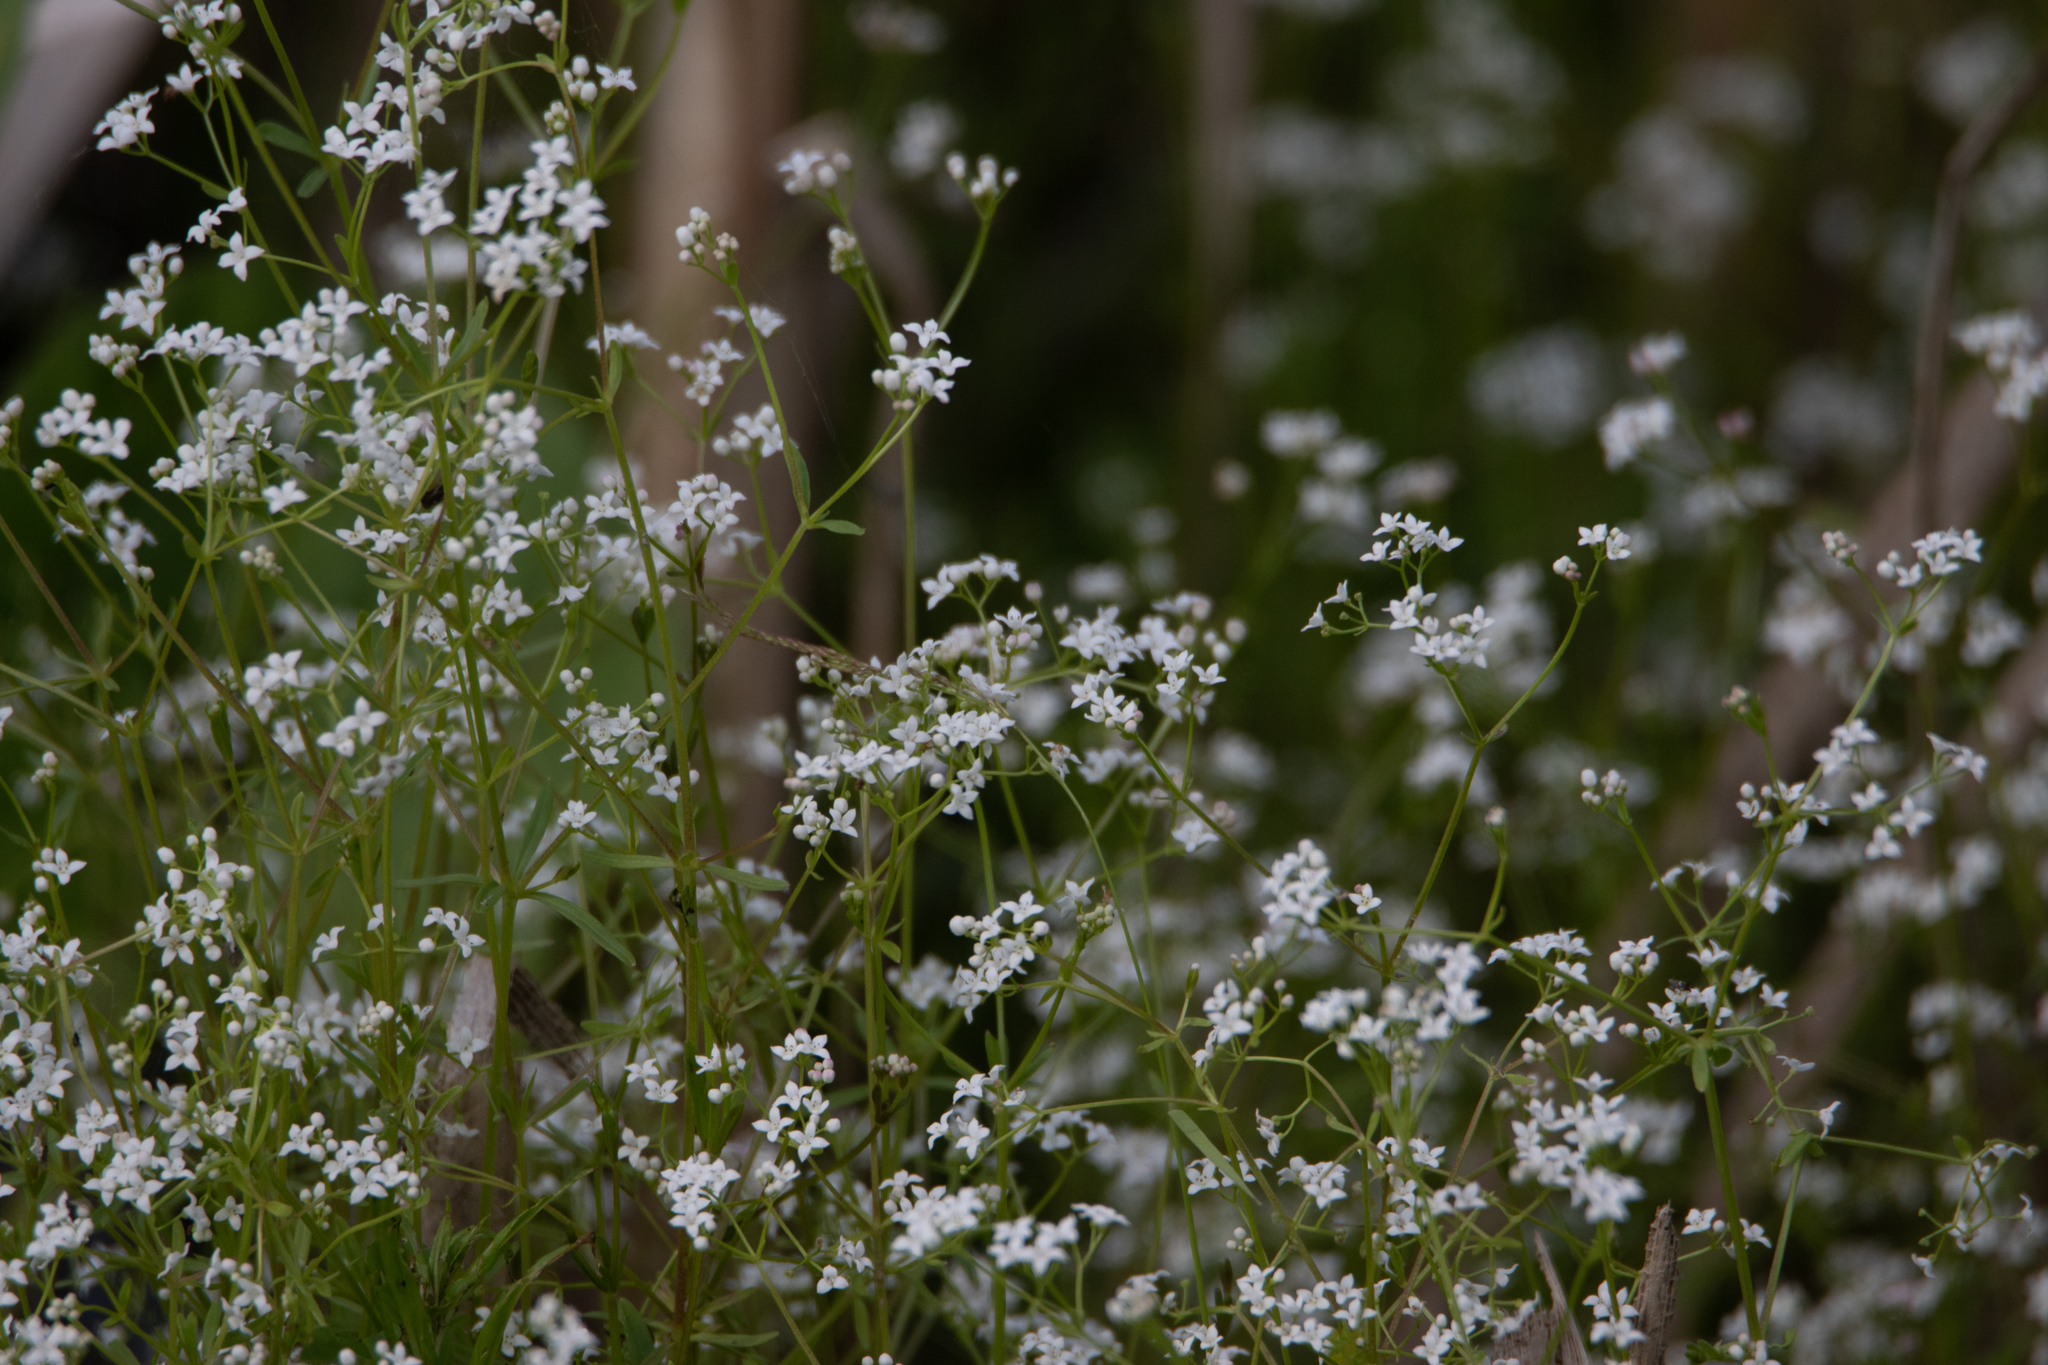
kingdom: Plantae
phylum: Tracheophyta
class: Magnoliopsida
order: Gentianales
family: Rubiaceae
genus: Galium
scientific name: Galium palustre
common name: Common marsh-bedstraw
